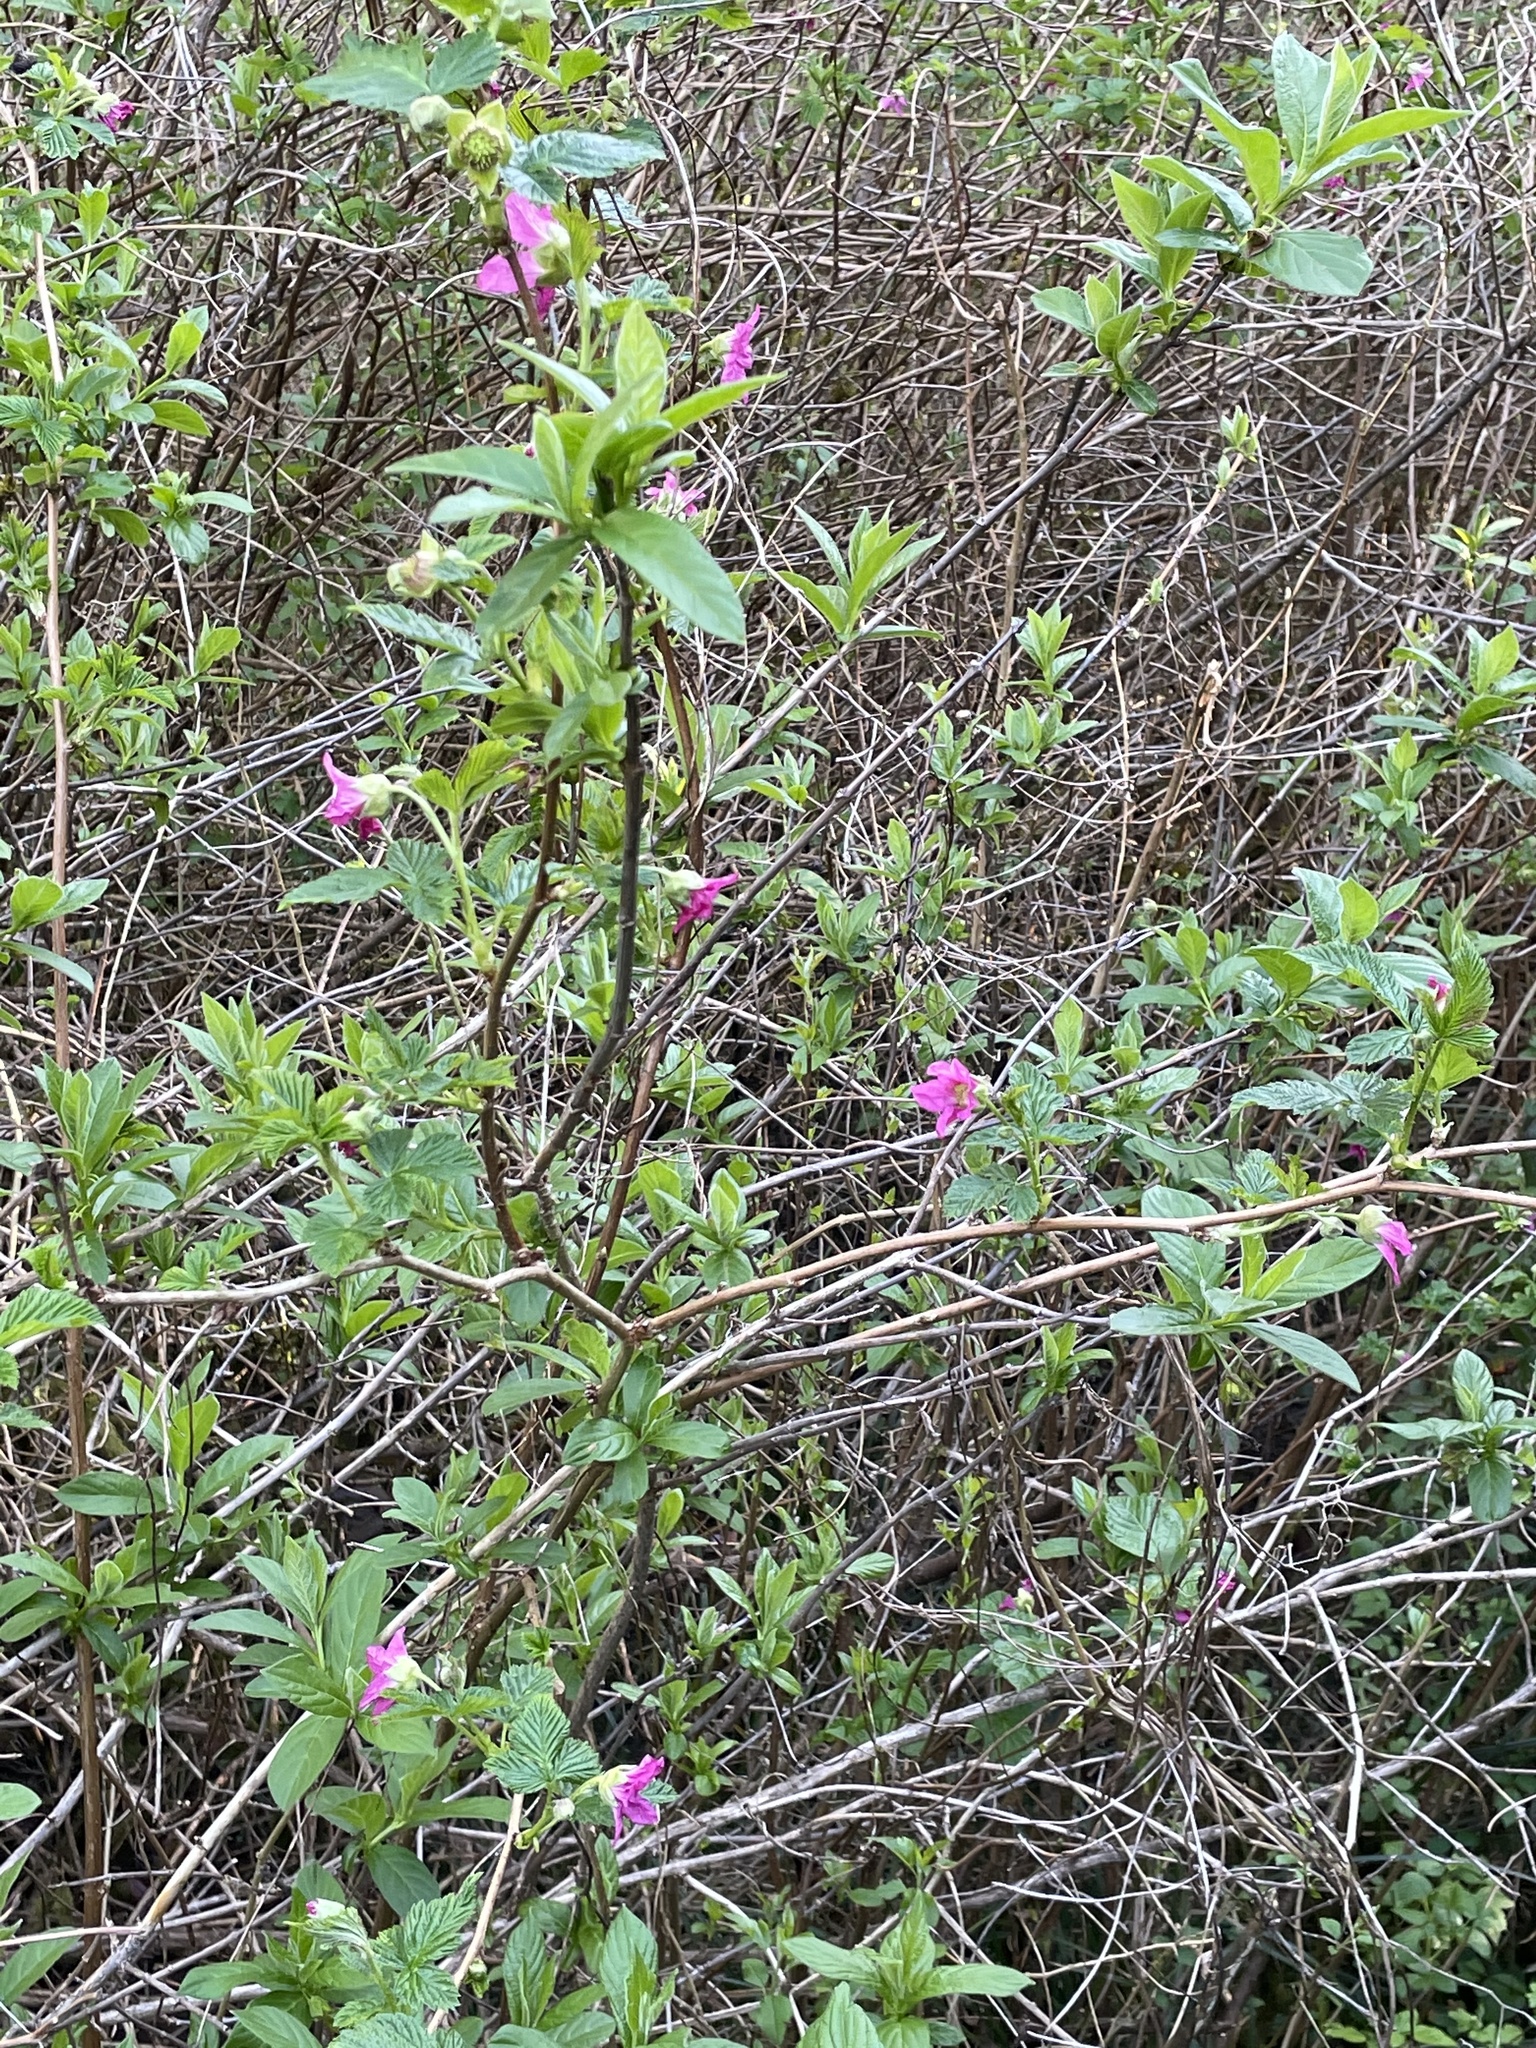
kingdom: Plantae
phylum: Tracheophyta
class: Magnoliopsida
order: Rosales
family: Rosaceae
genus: Rubus
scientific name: Rubus spectabilis
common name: Salmonberry
